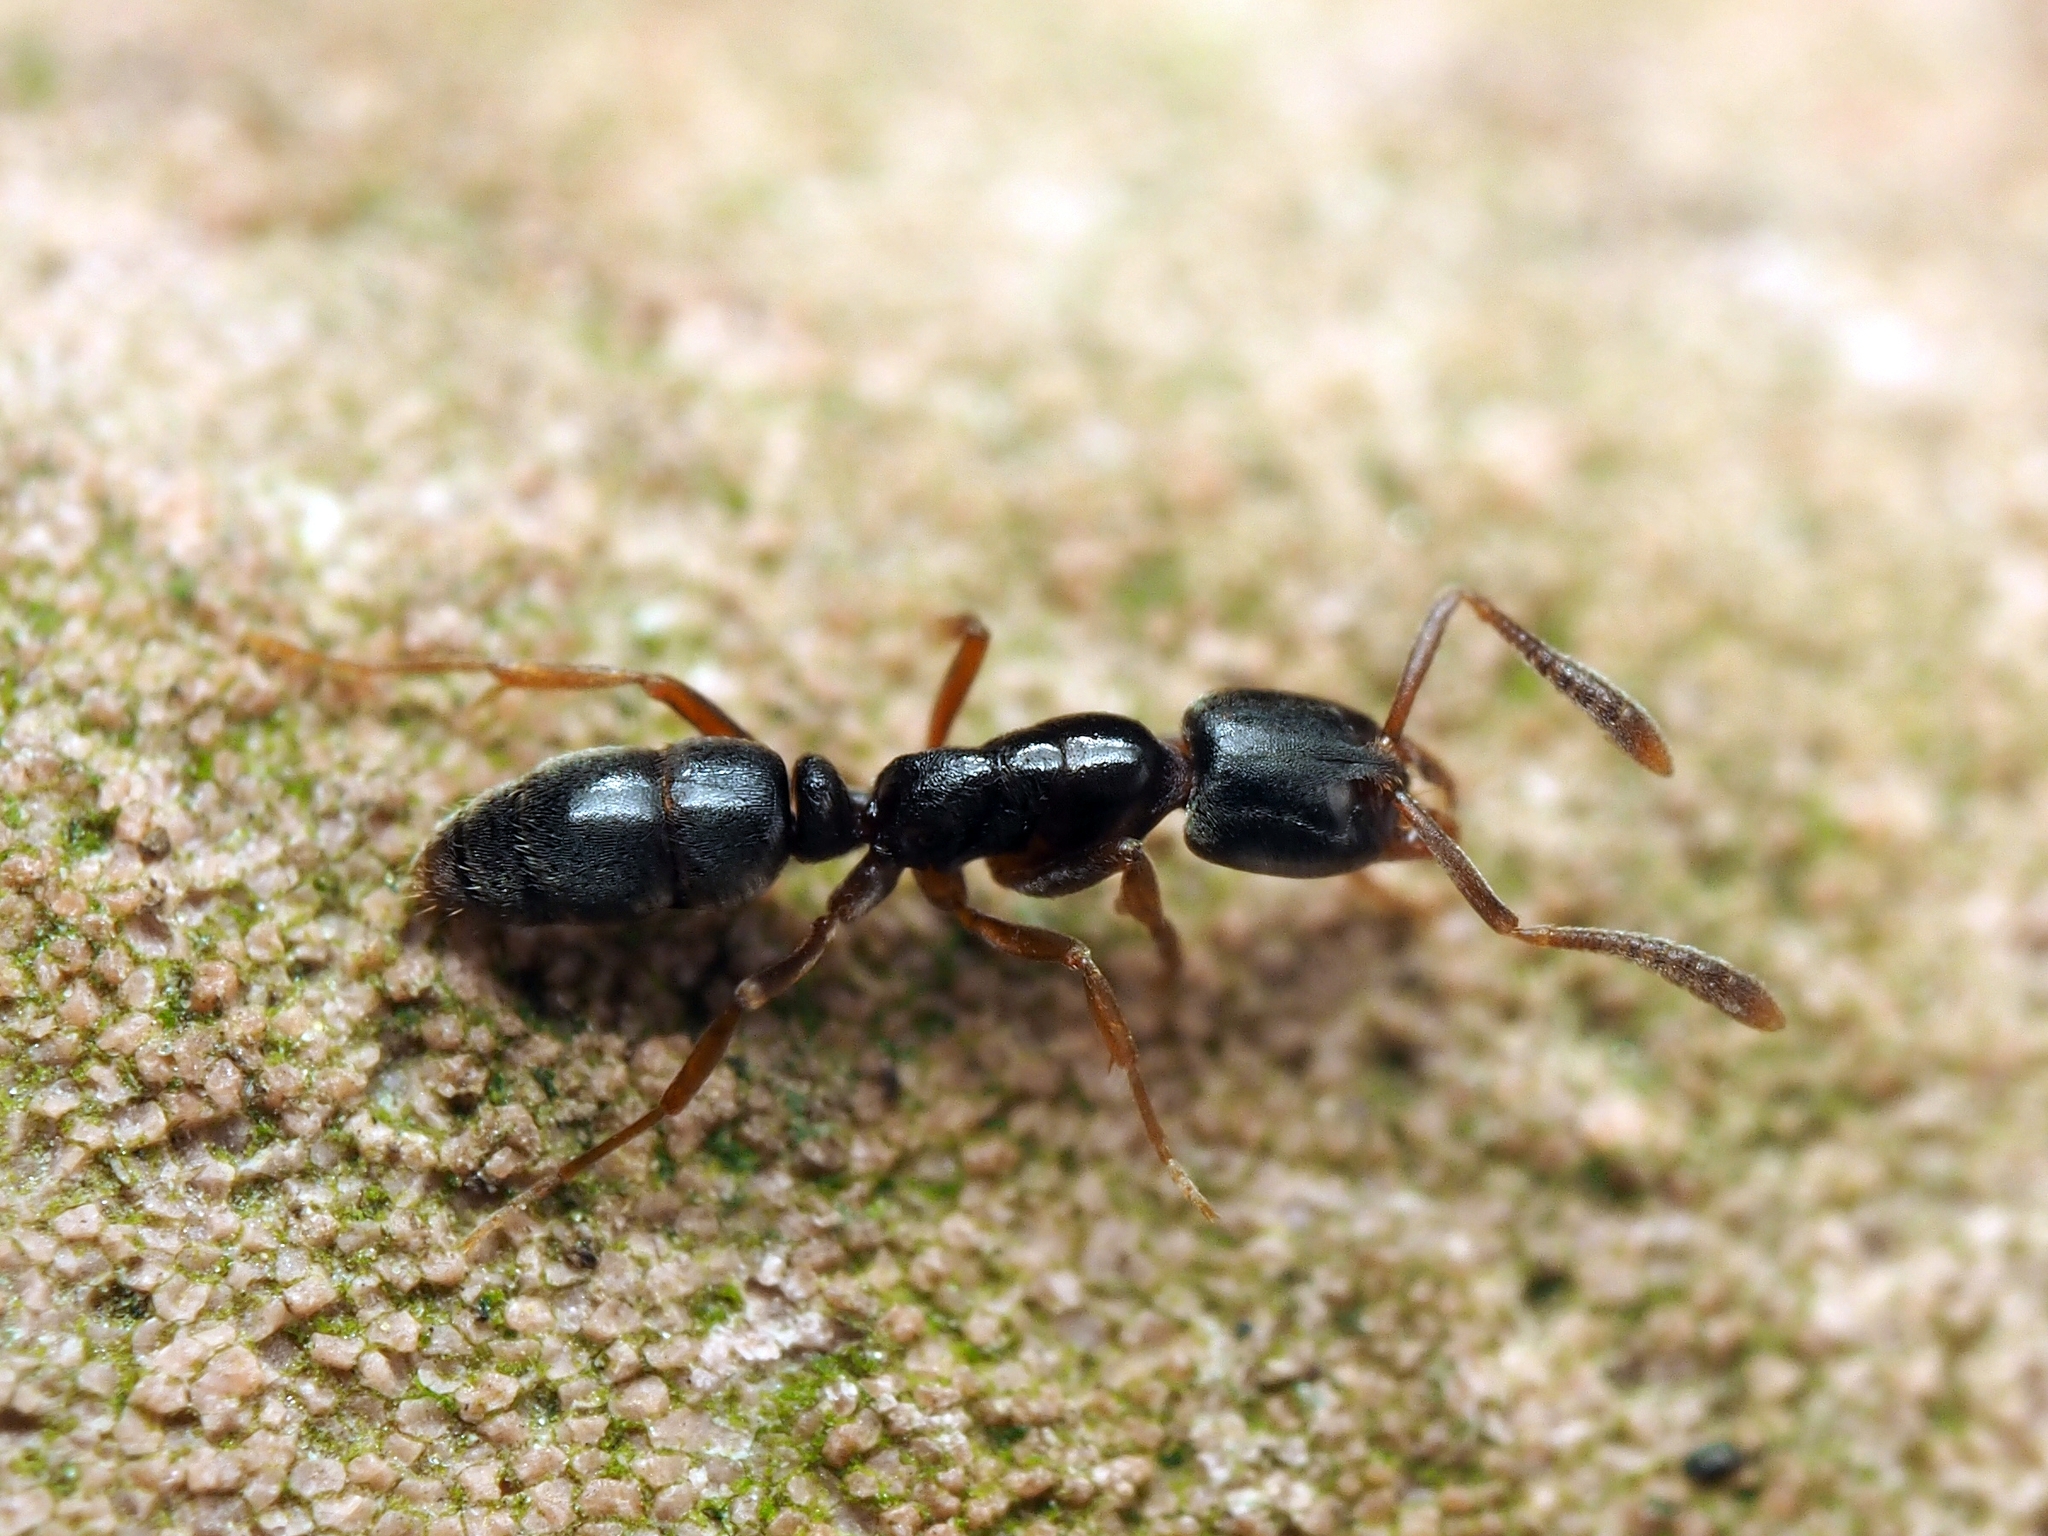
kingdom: Animalia
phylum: Arthropoda
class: Insecta
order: Hymenoptera
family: Formicidae
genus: Hypoponera
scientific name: Hypoponera eduardi
